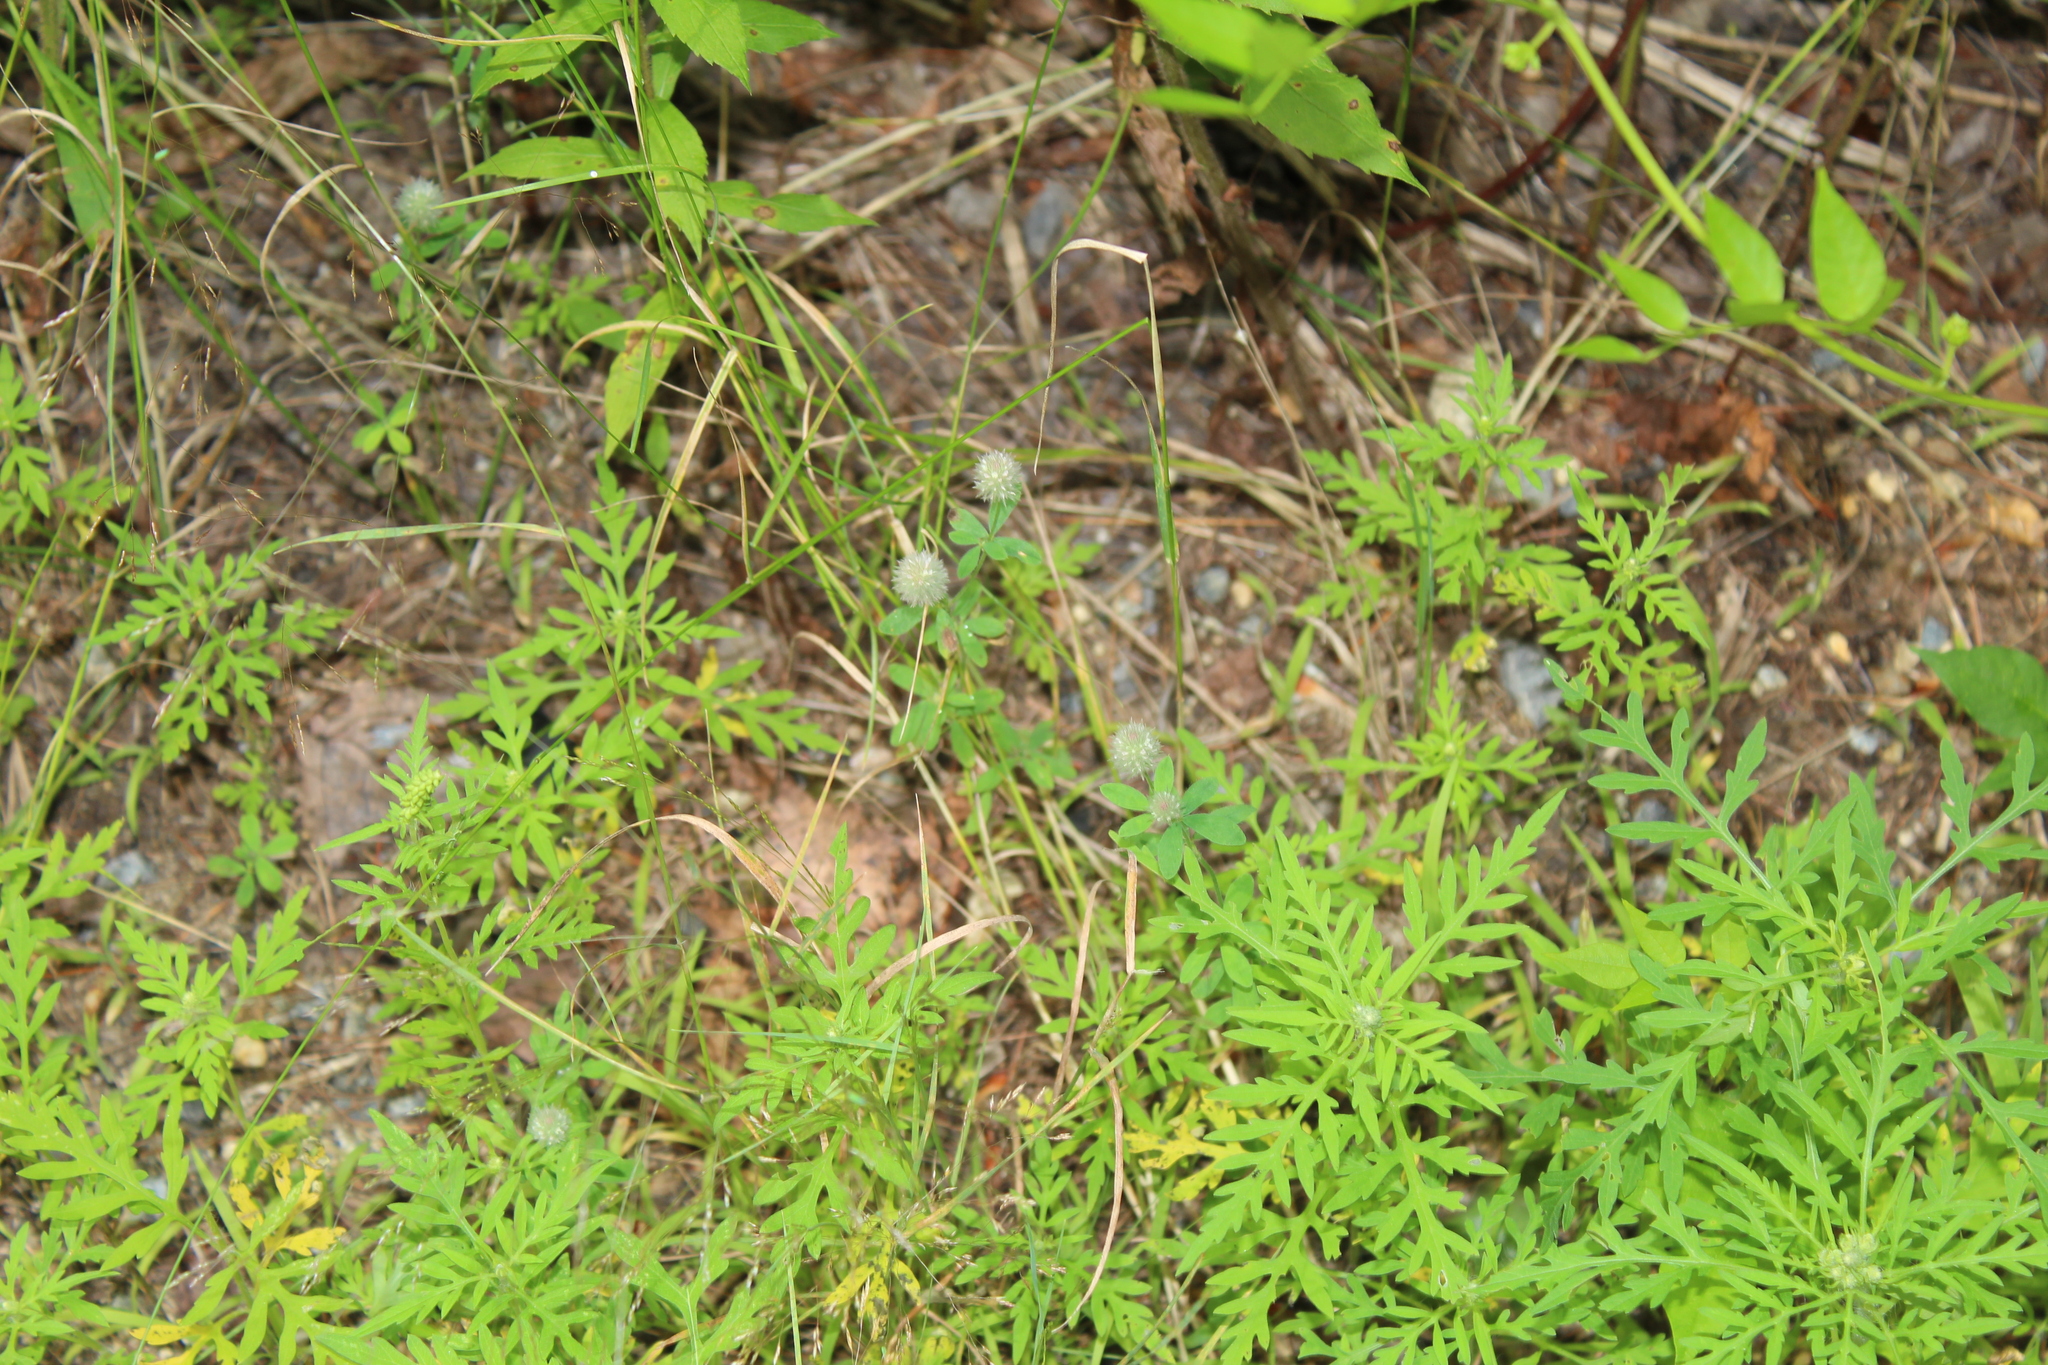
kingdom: Plantae
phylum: Tracheophyta
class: Magnoliopsida
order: Fabales
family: Fabaceae
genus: Trifolium
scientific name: Trifolium arvense
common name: Hare's-foot clover
